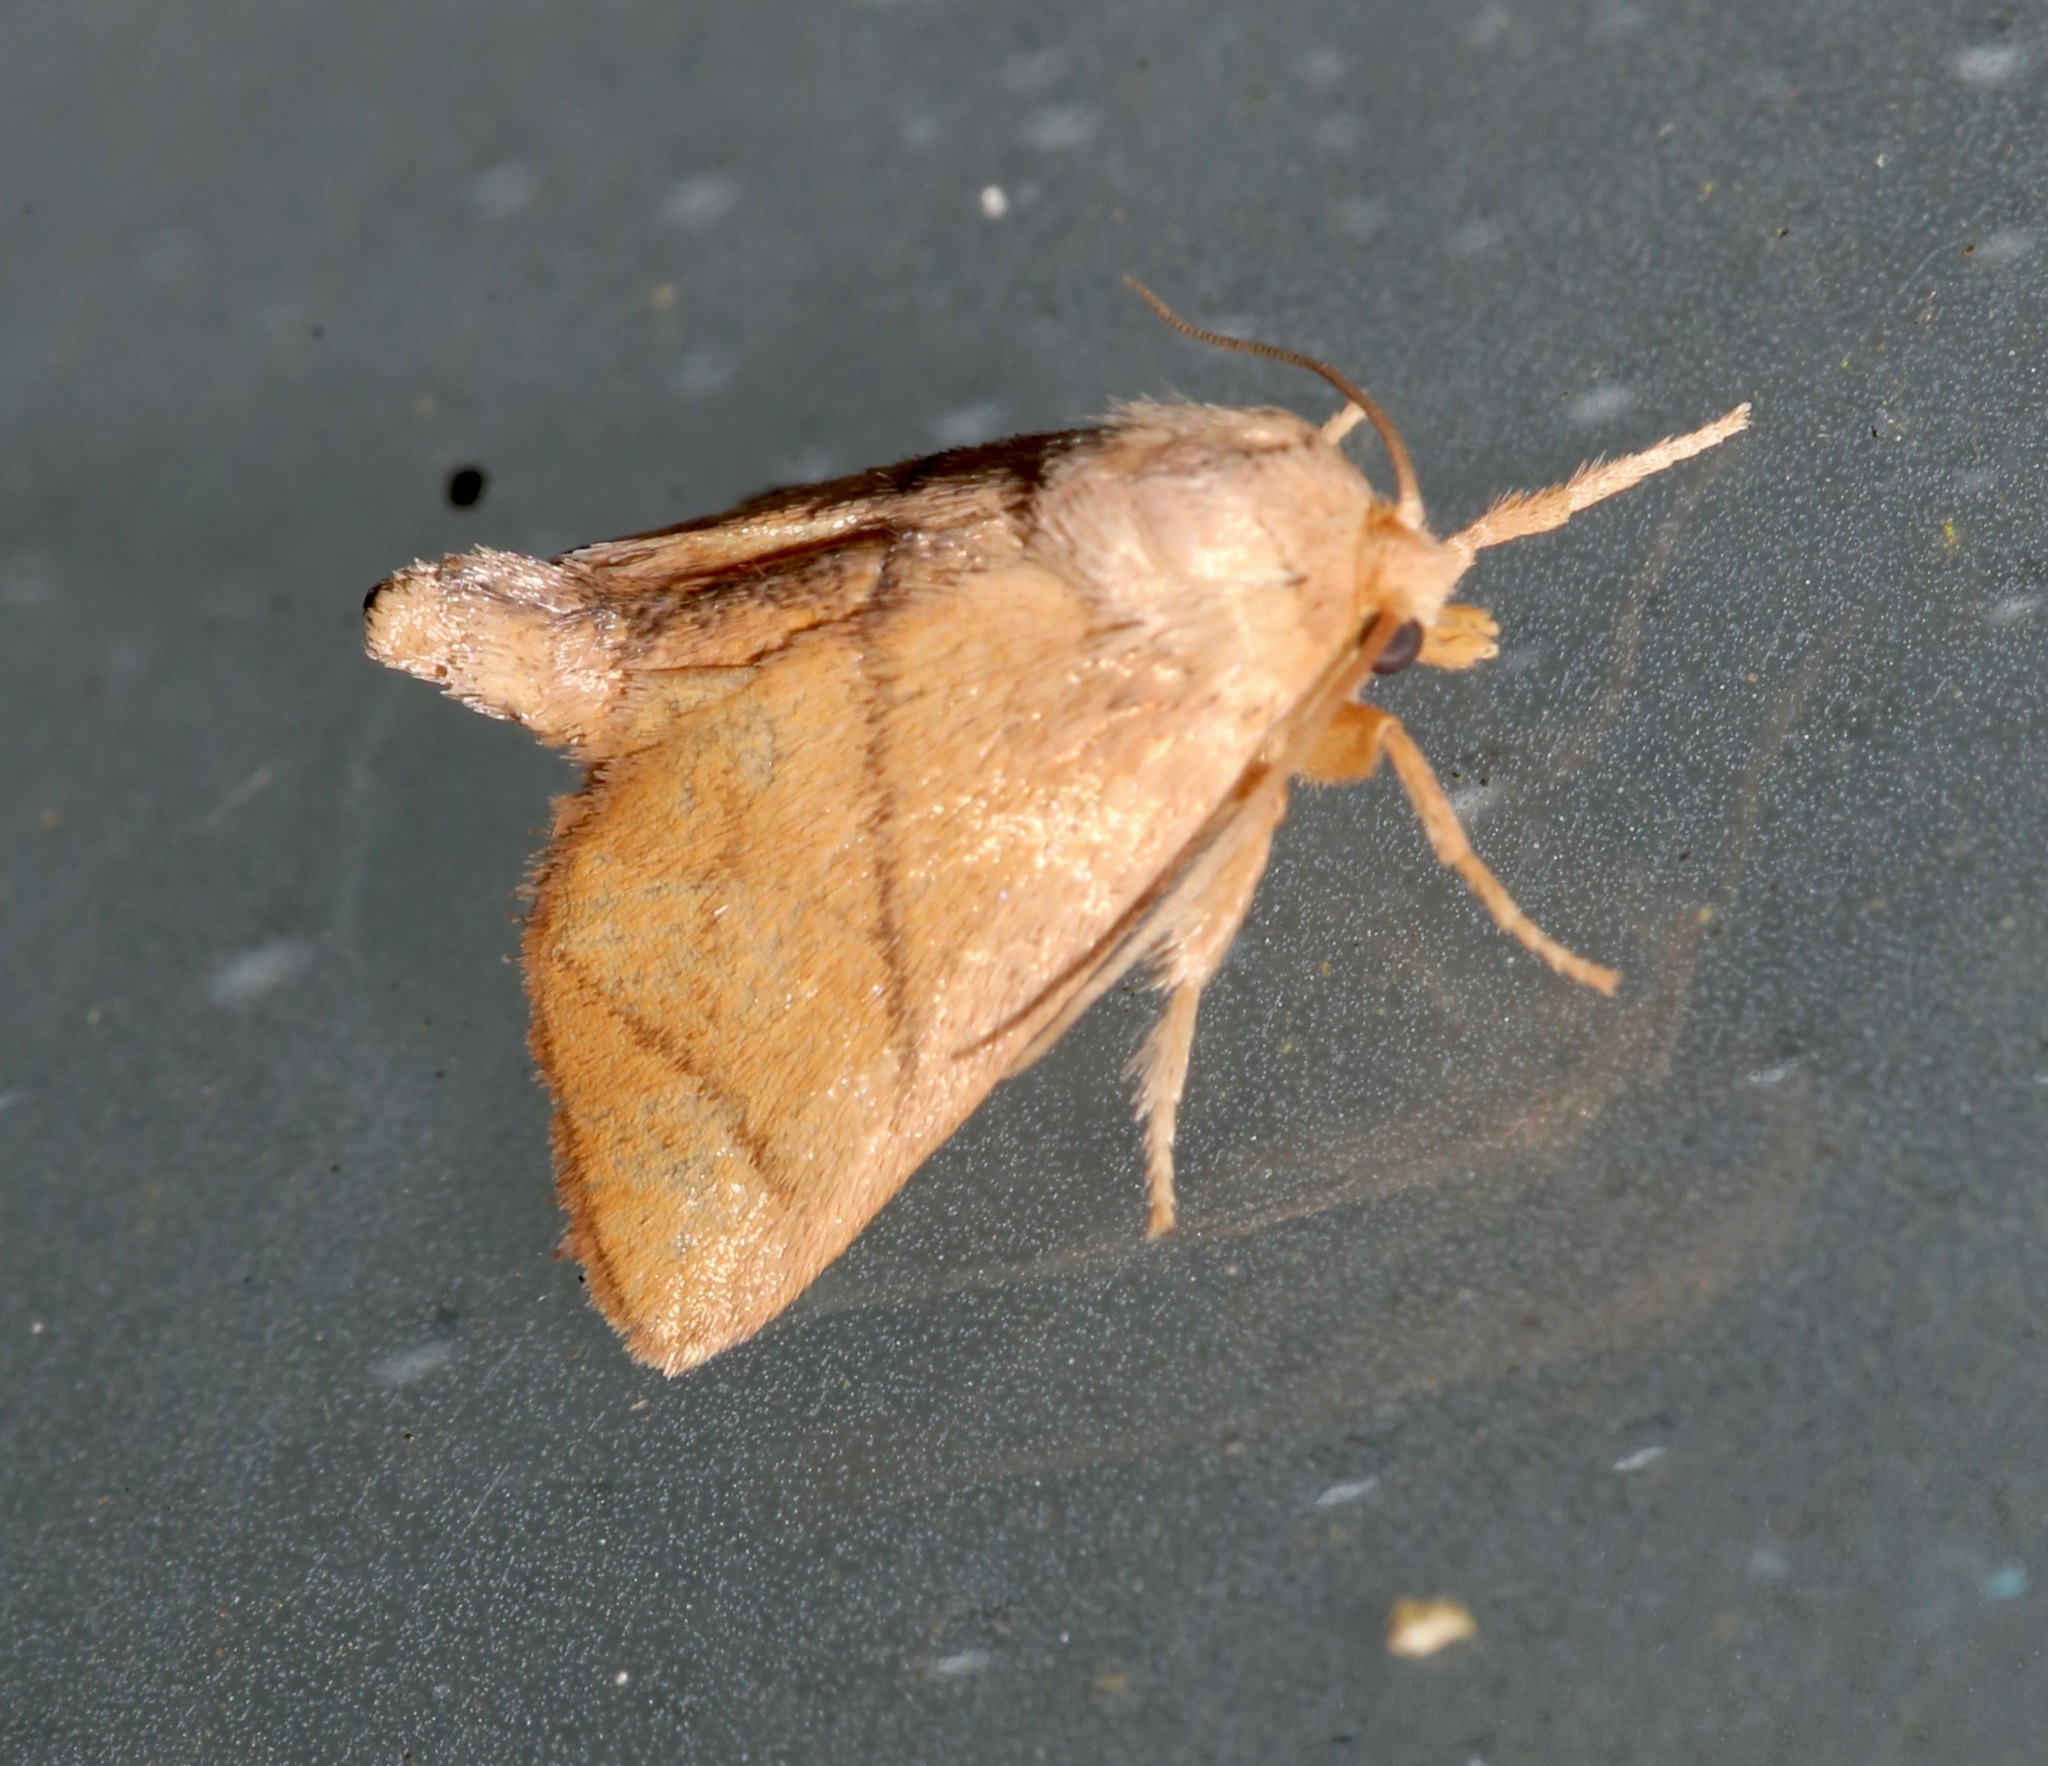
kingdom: Animalia
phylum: Arthropoda
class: Insecta
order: Lepidoptera
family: Limacodidae
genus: Apoda
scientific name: Apoda y-inversa
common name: Yellow-collared slug moth
